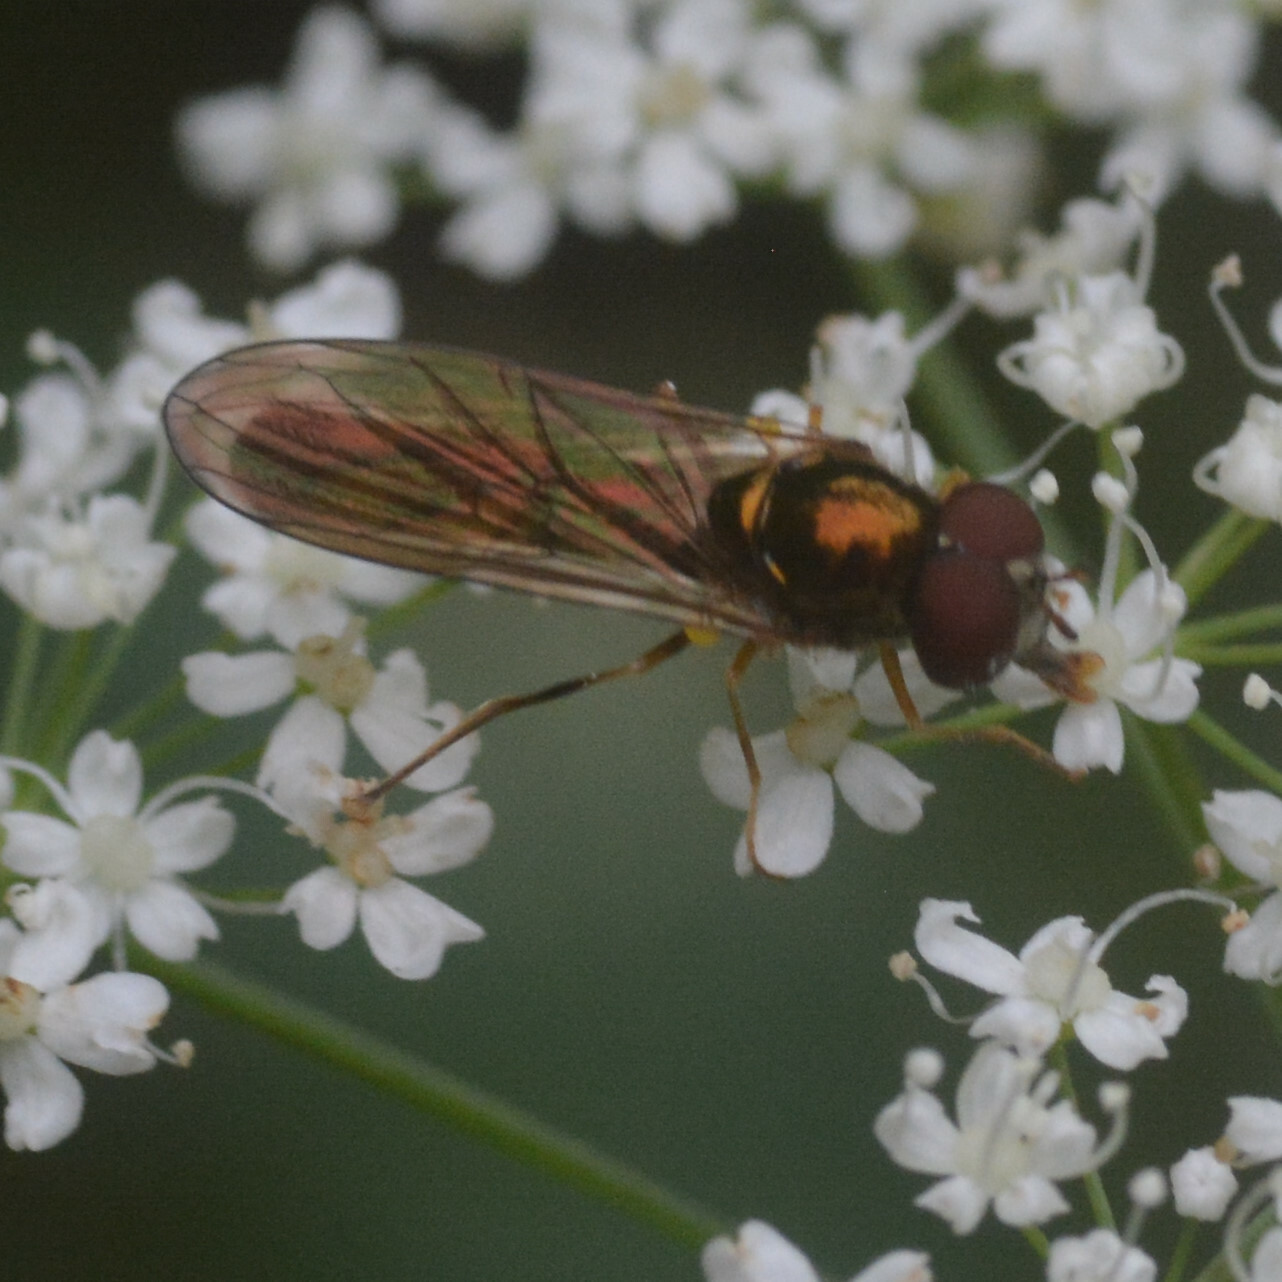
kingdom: Animalia
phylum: Arthropoda
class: Insecta
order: Diptera
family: Syrphidae
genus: Melanostoma
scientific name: Melanostoma scalare
